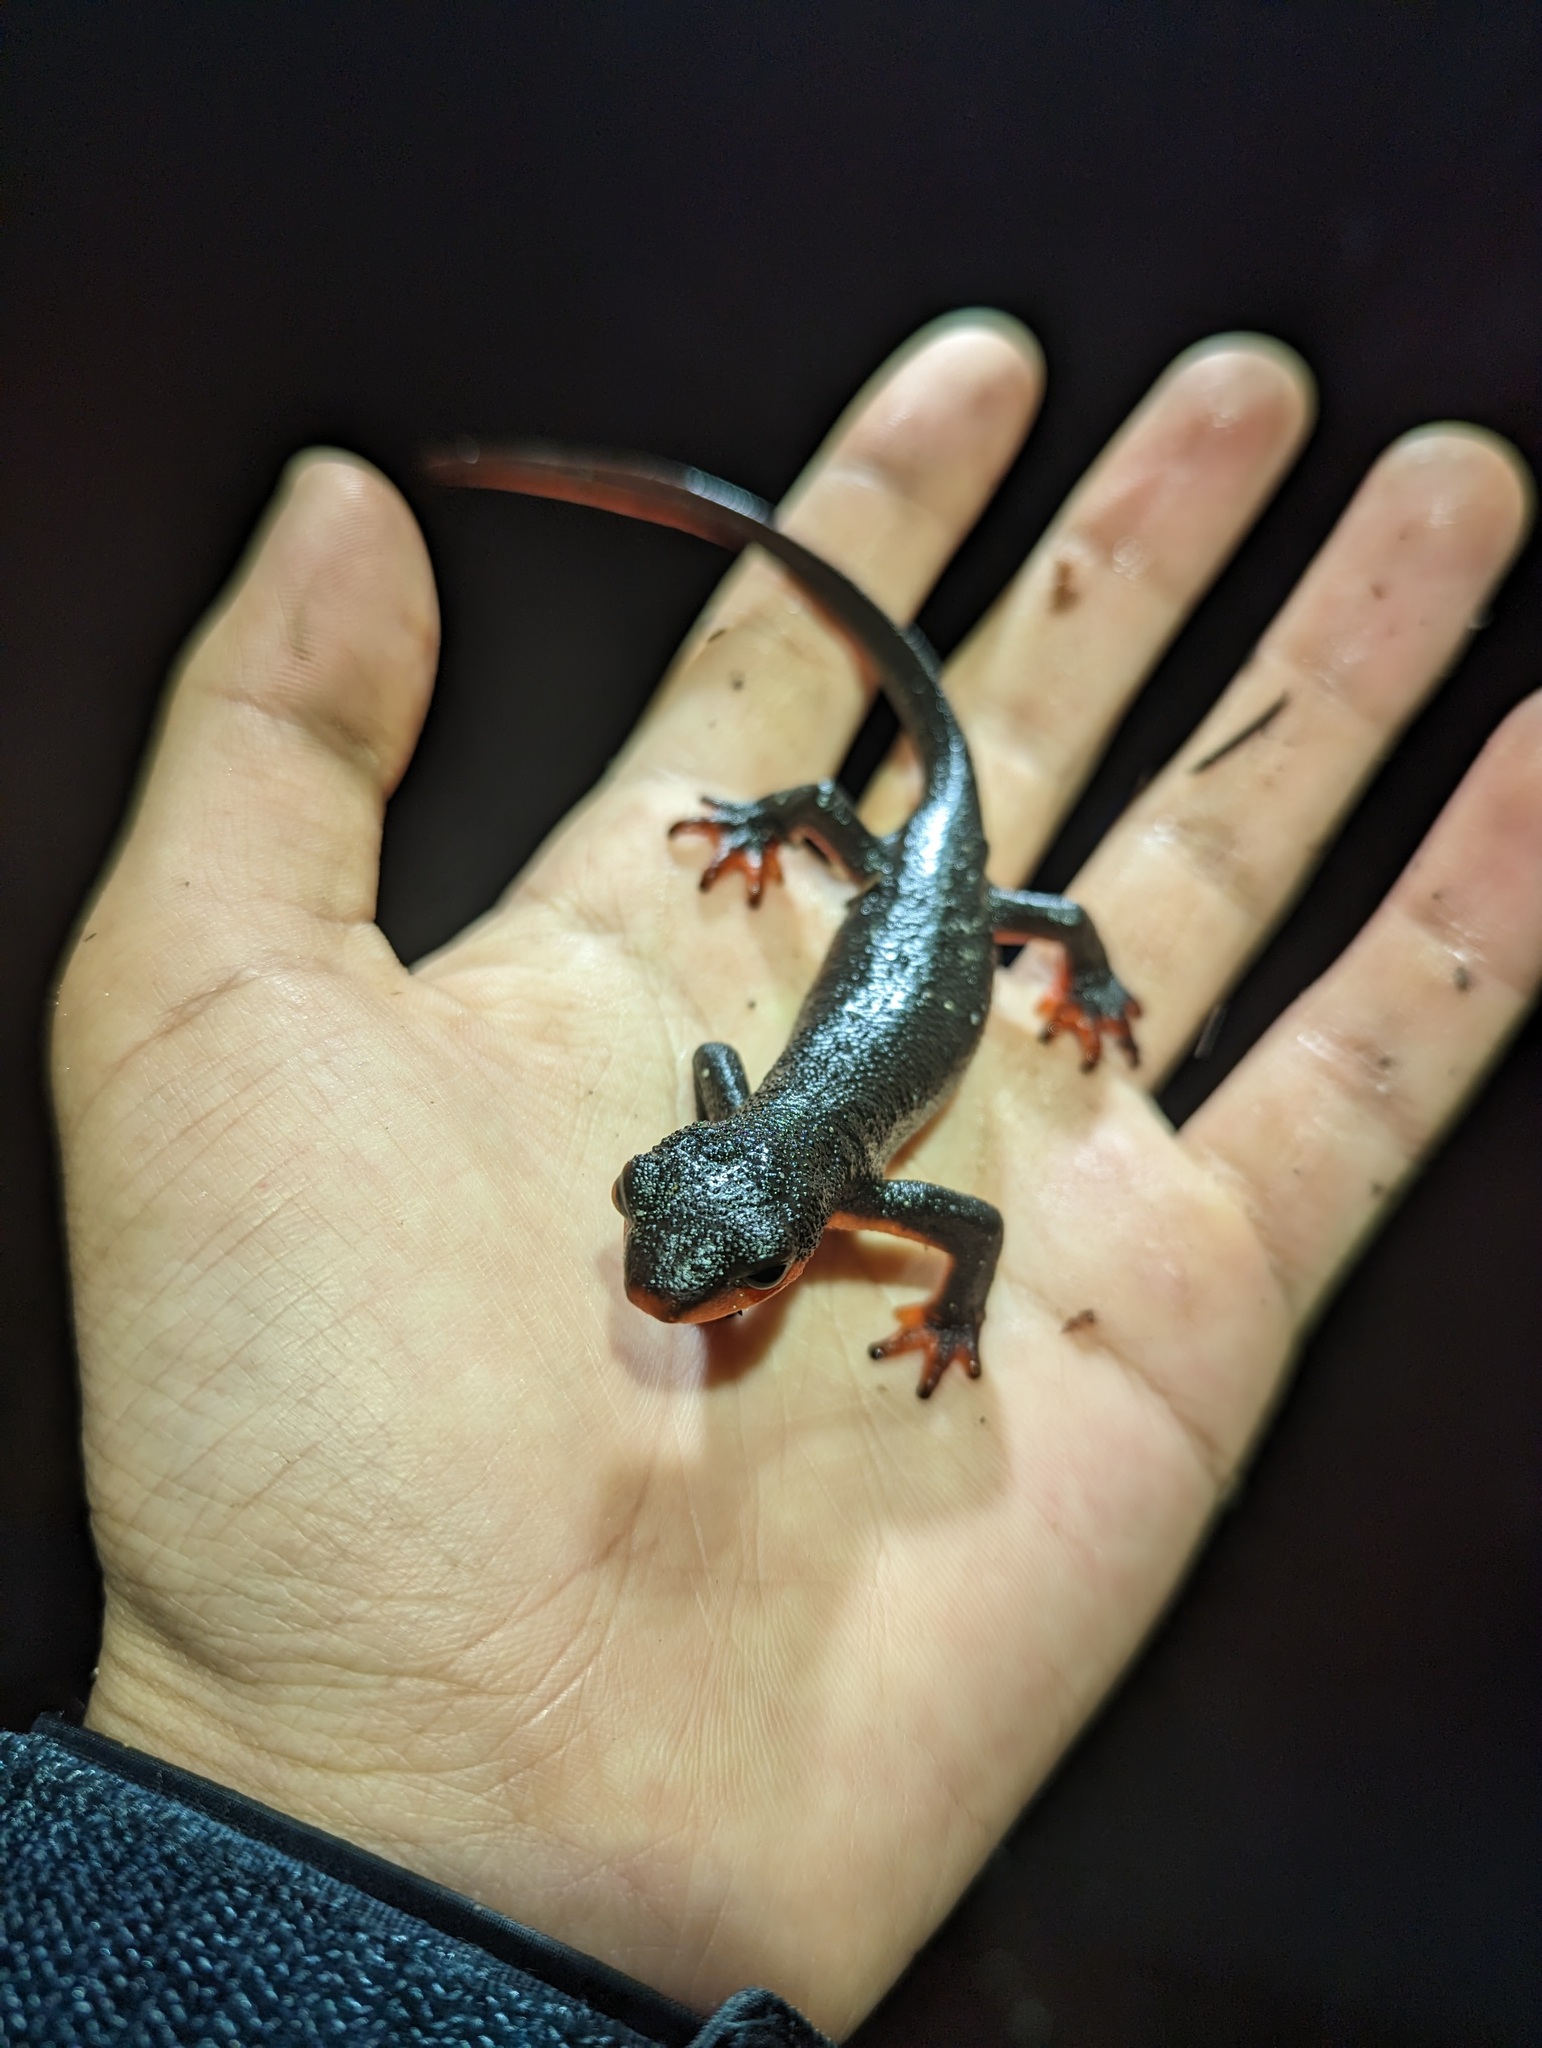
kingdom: Animalia
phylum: Chordata
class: Amphibia
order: Caudata
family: Salamandridae
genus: Taricha
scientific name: Taricha rivularis
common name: Red-bellied newt
